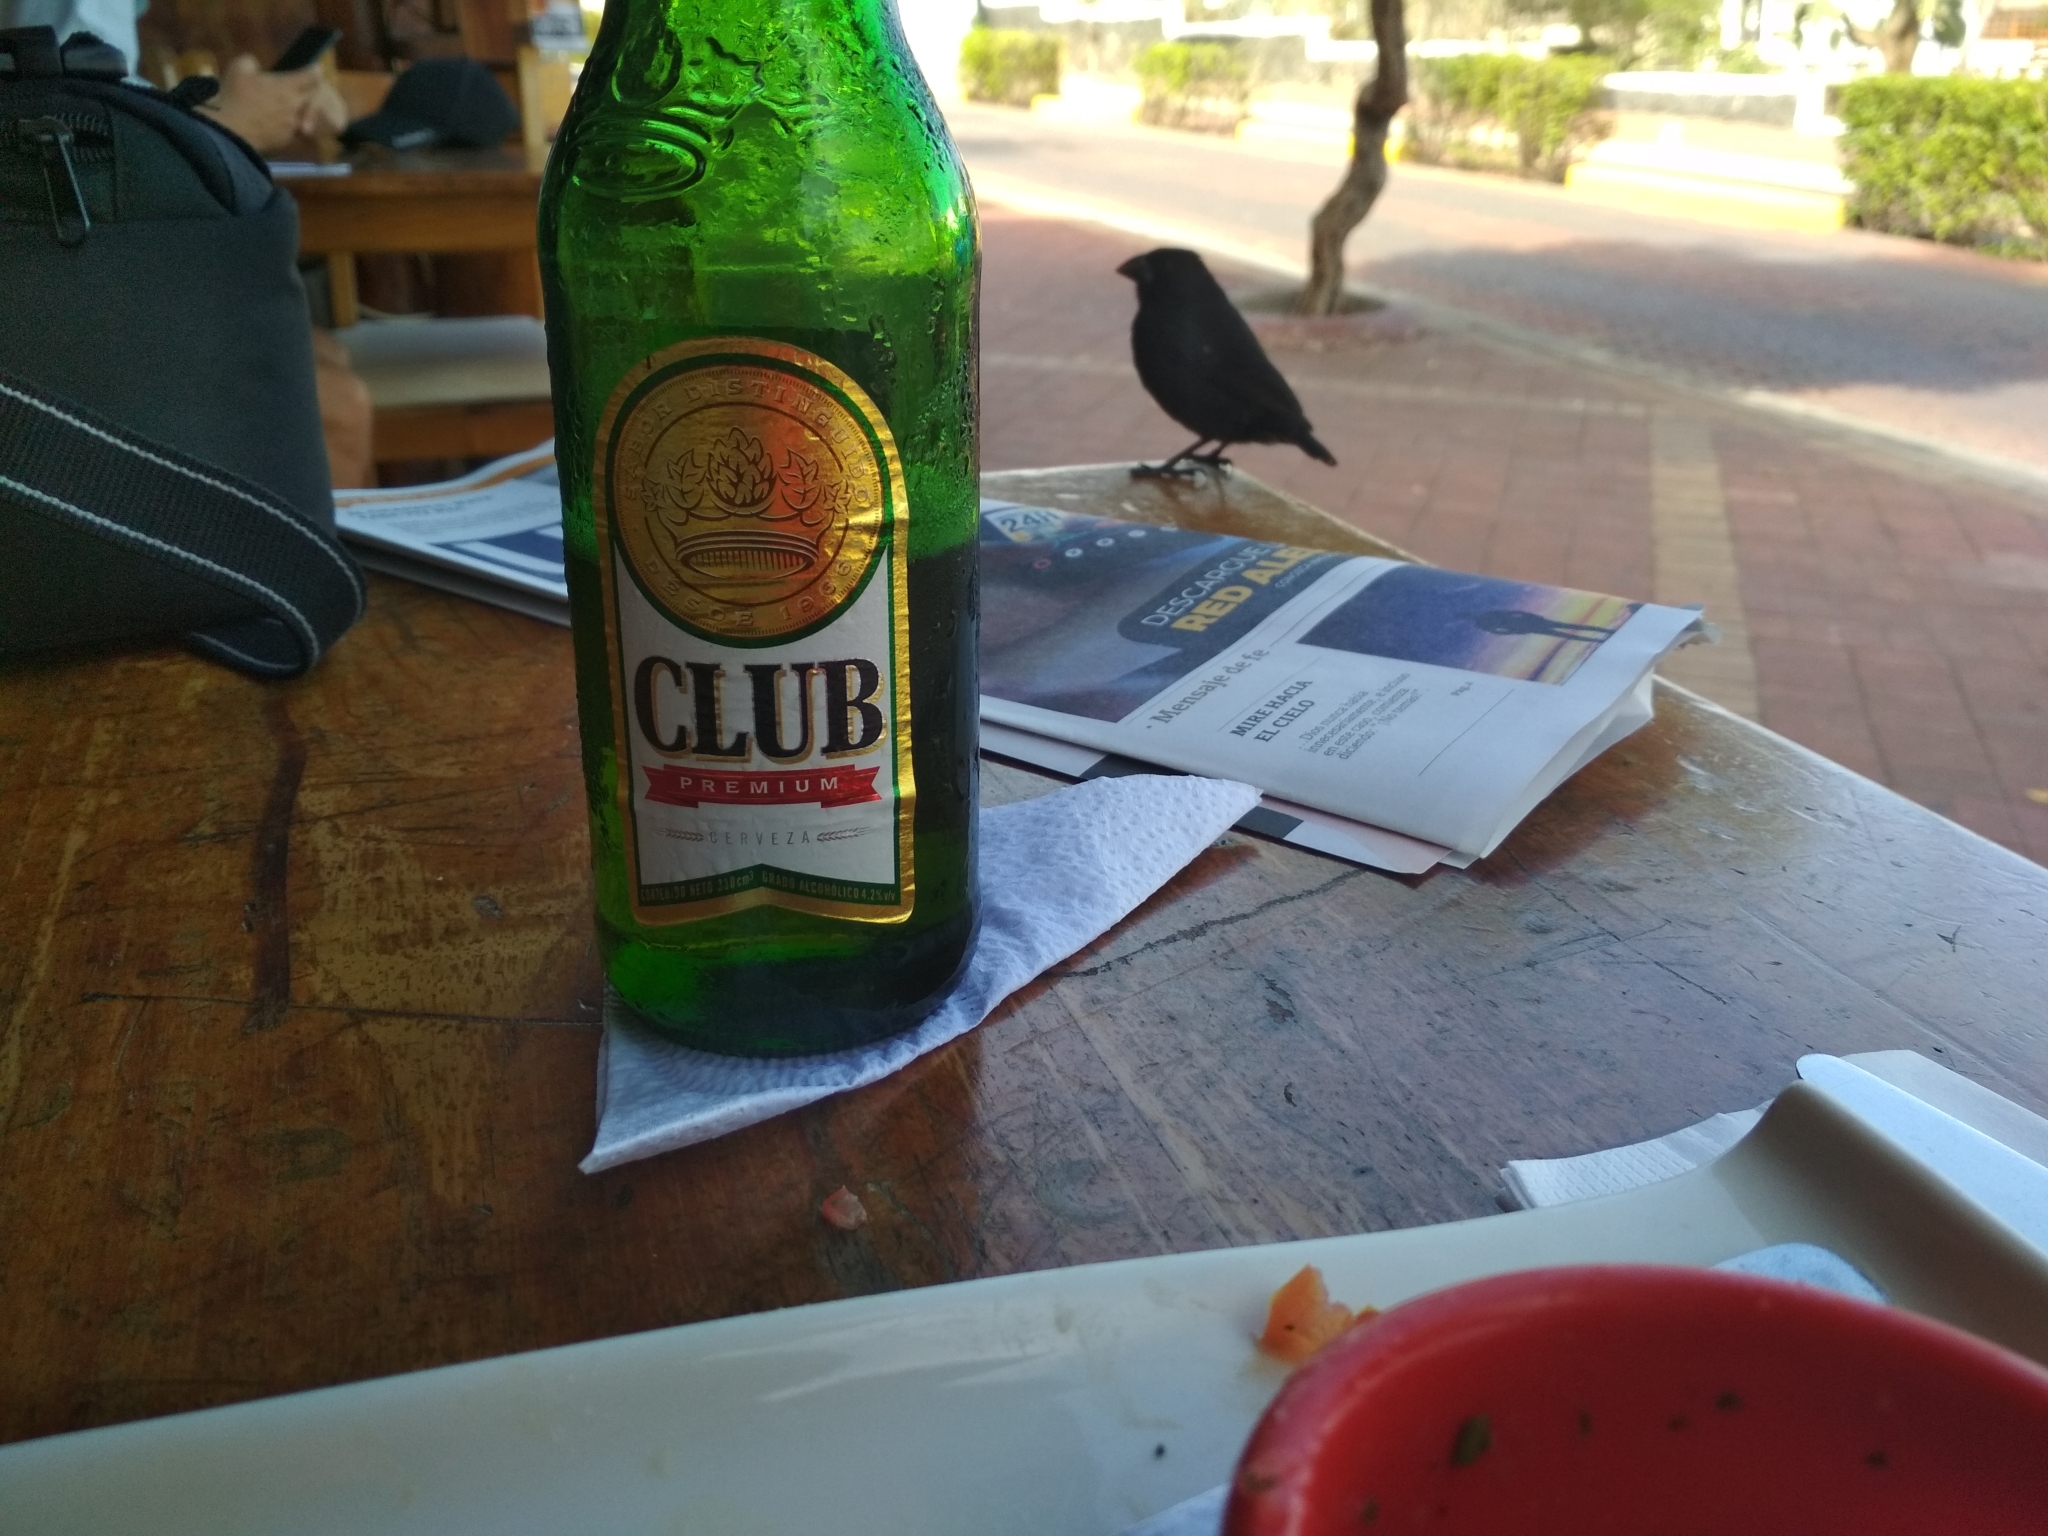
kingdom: Animalia
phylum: Chordata
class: Aves
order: Passeriformes
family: Thraupidae
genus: Geospiza
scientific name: Geospiza fuliginosa
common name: Small ground finch
